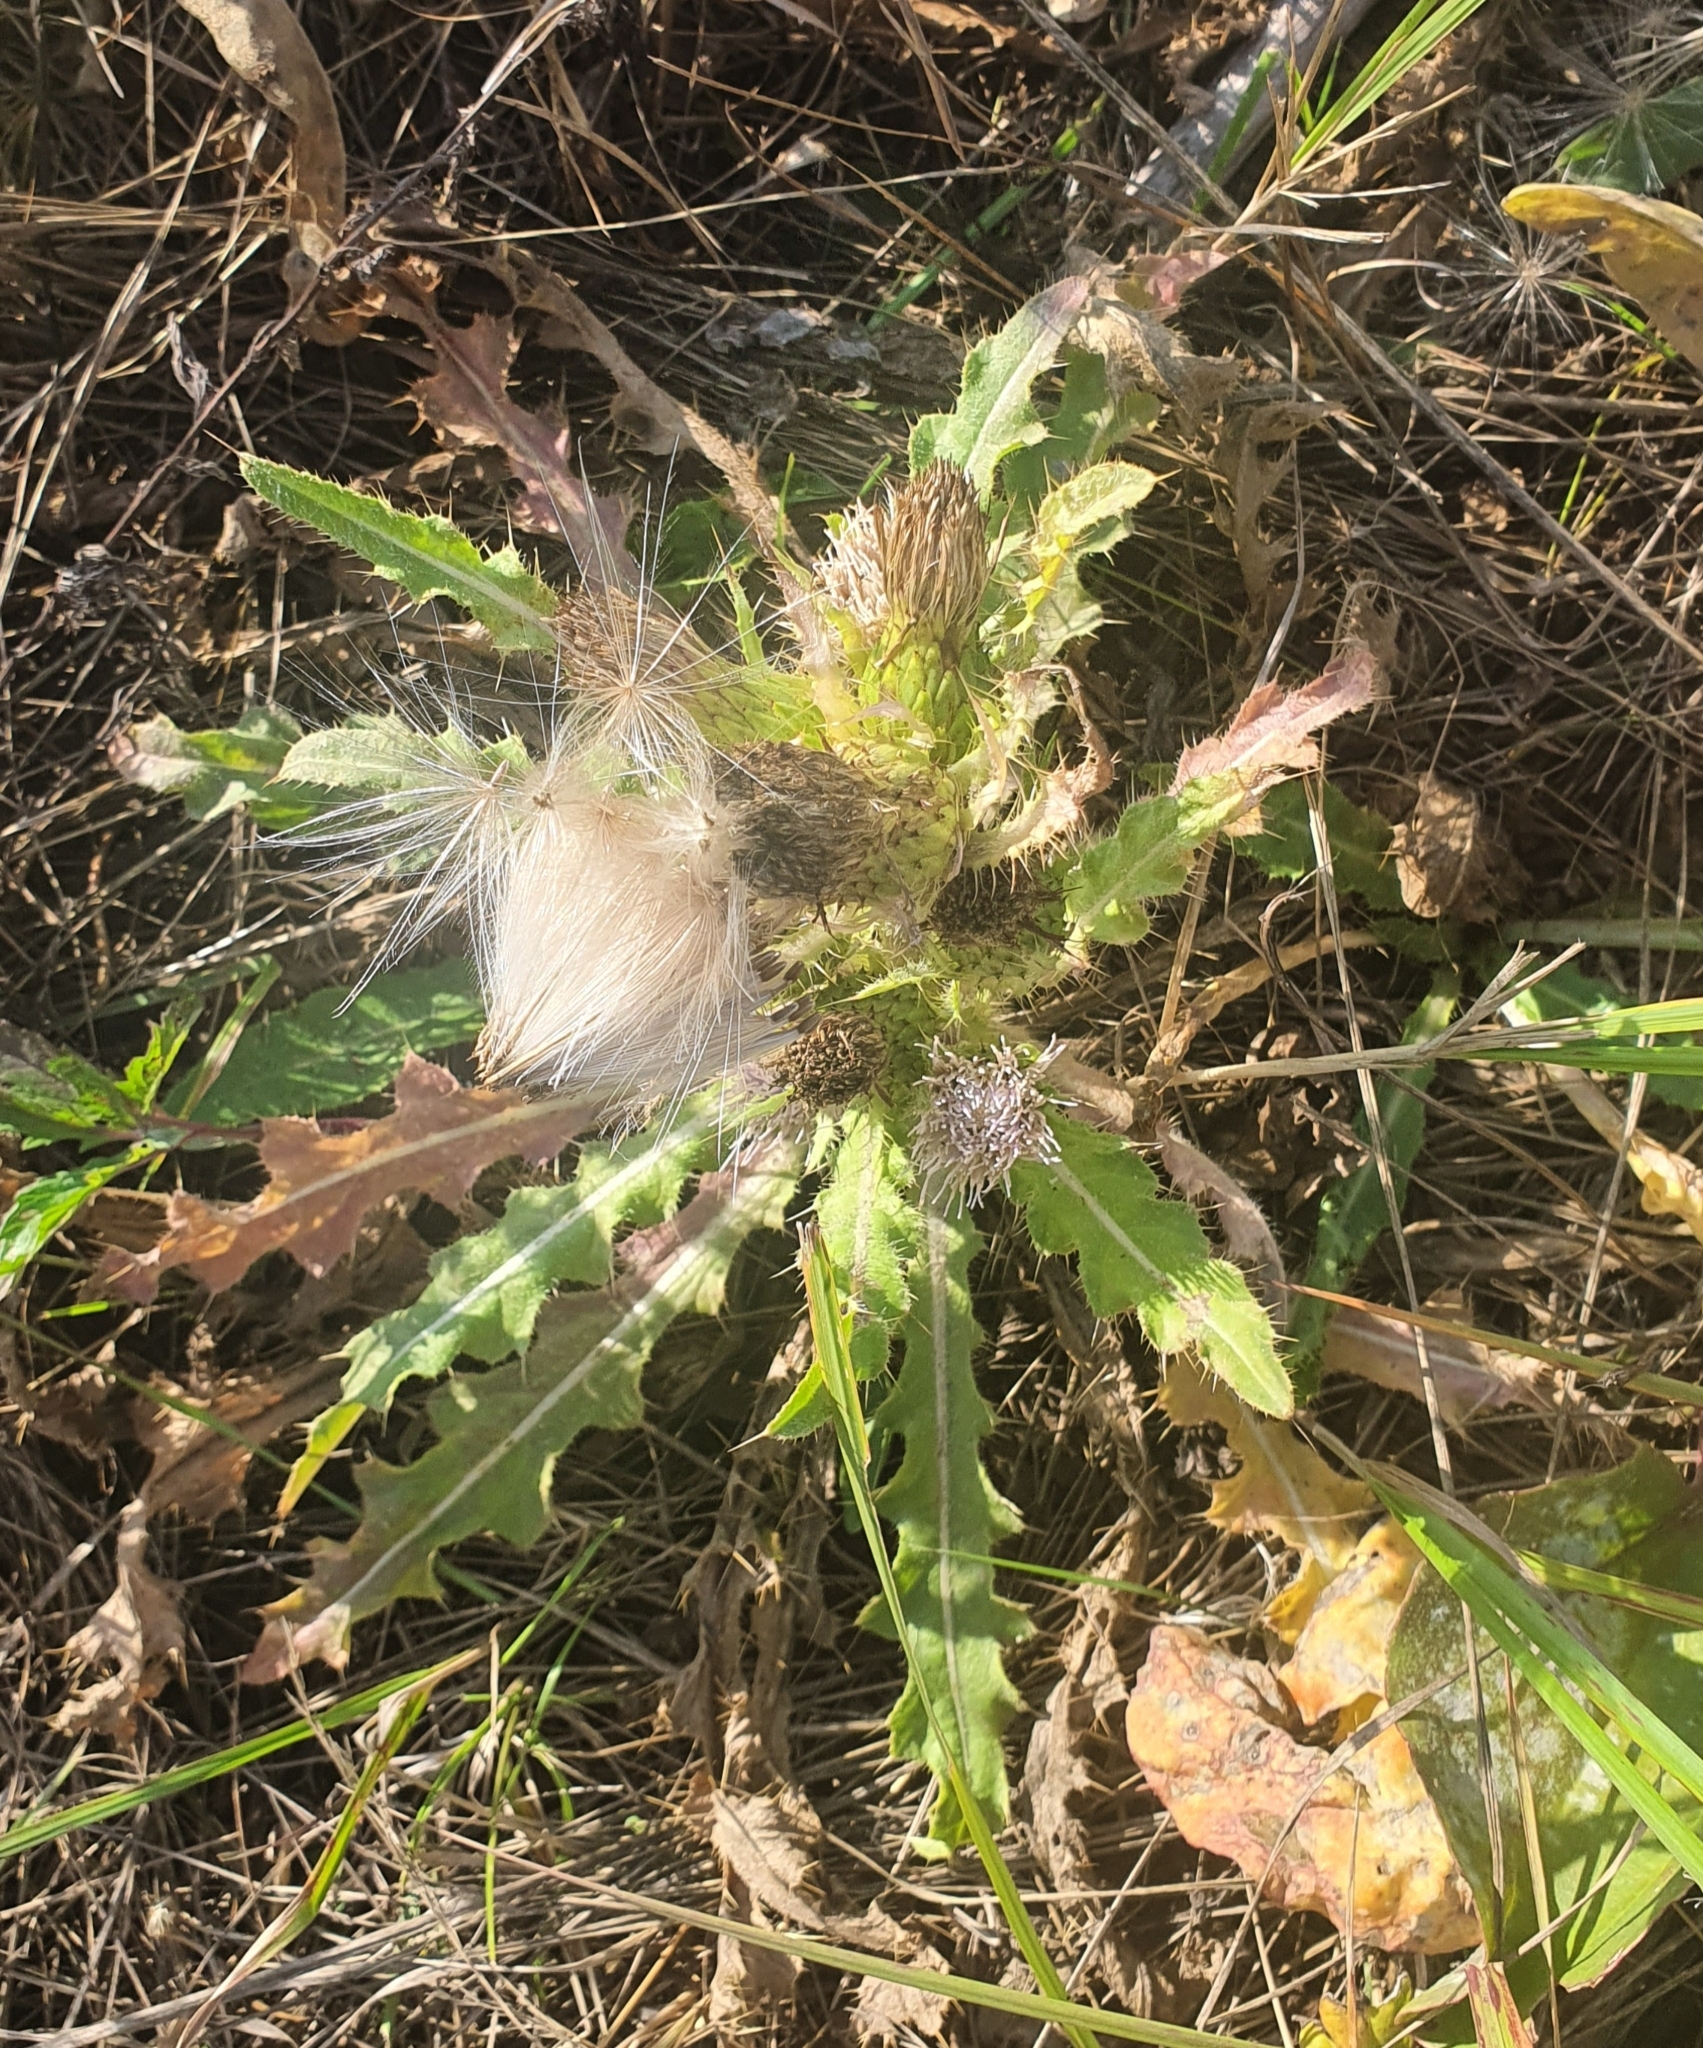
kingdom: Plantae
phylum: Tracheophyta
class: Magnoliopsida
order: Asterales
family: Asteraceae
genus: Cirsium
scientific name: Cirsium esculentum
